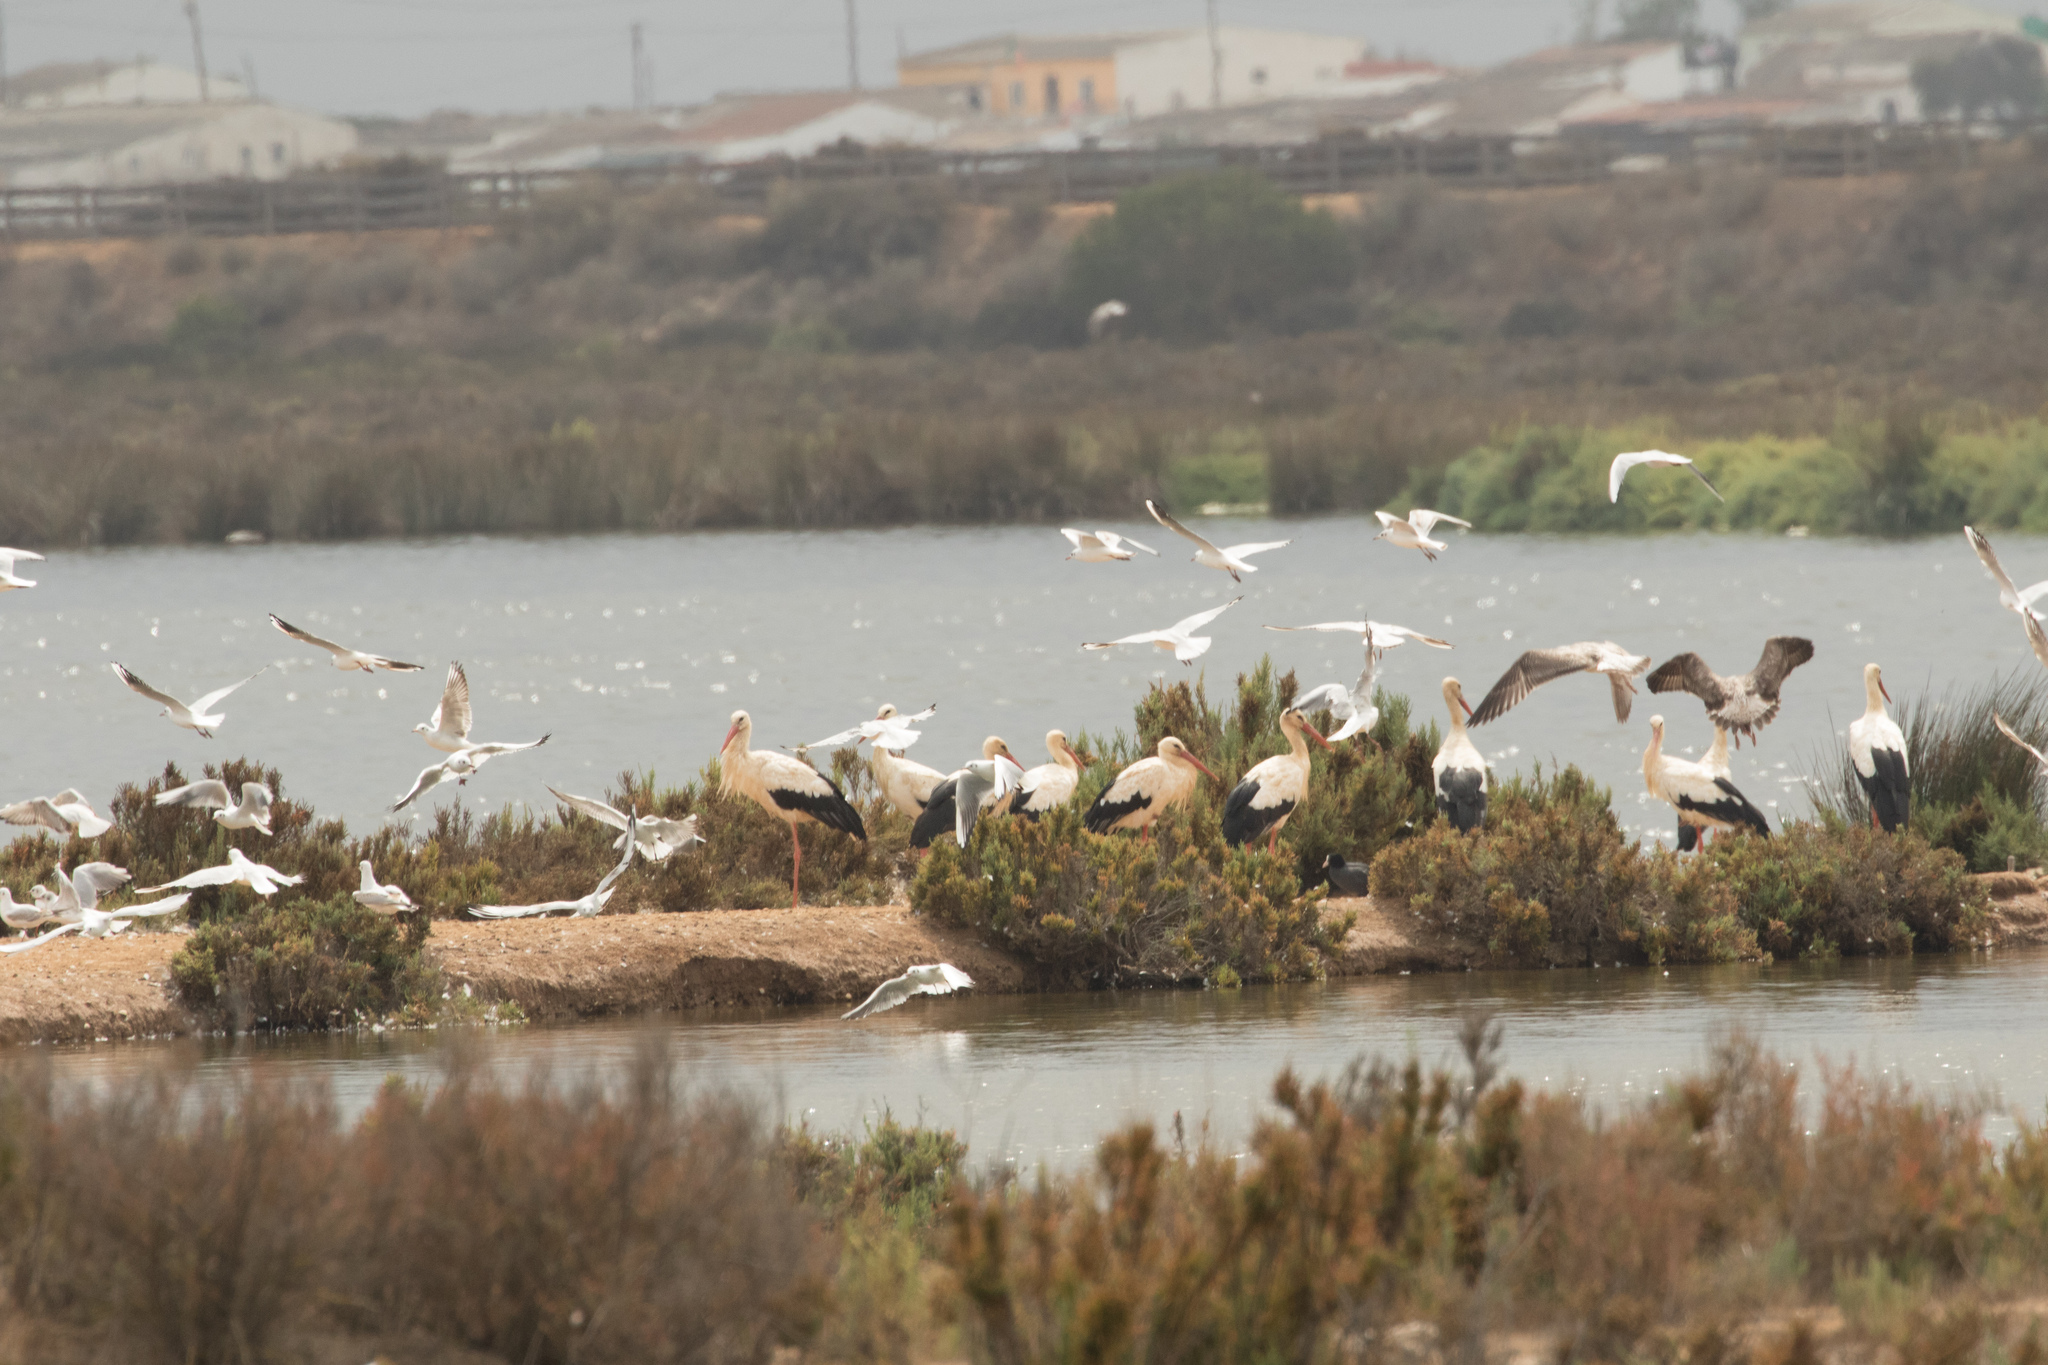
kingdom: Animalia
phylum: Chordata
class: Aves
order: Charadriiformes
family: Laridae
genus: Chroicocephalus
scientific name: Chroicocephalus ridibundus
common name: Black-headed gull
